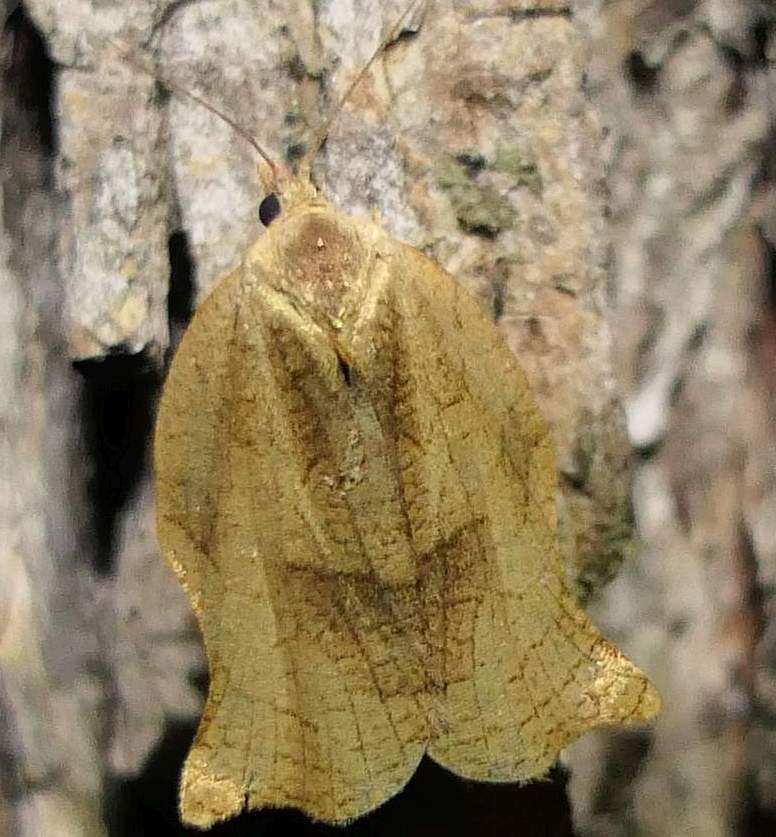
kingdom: Animalia
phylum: Arthropoda
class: Insecta
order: Lepidoptera
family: Tortricidae
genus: Archips
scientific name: Archips purpurana
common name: Omnivorous leafroller
